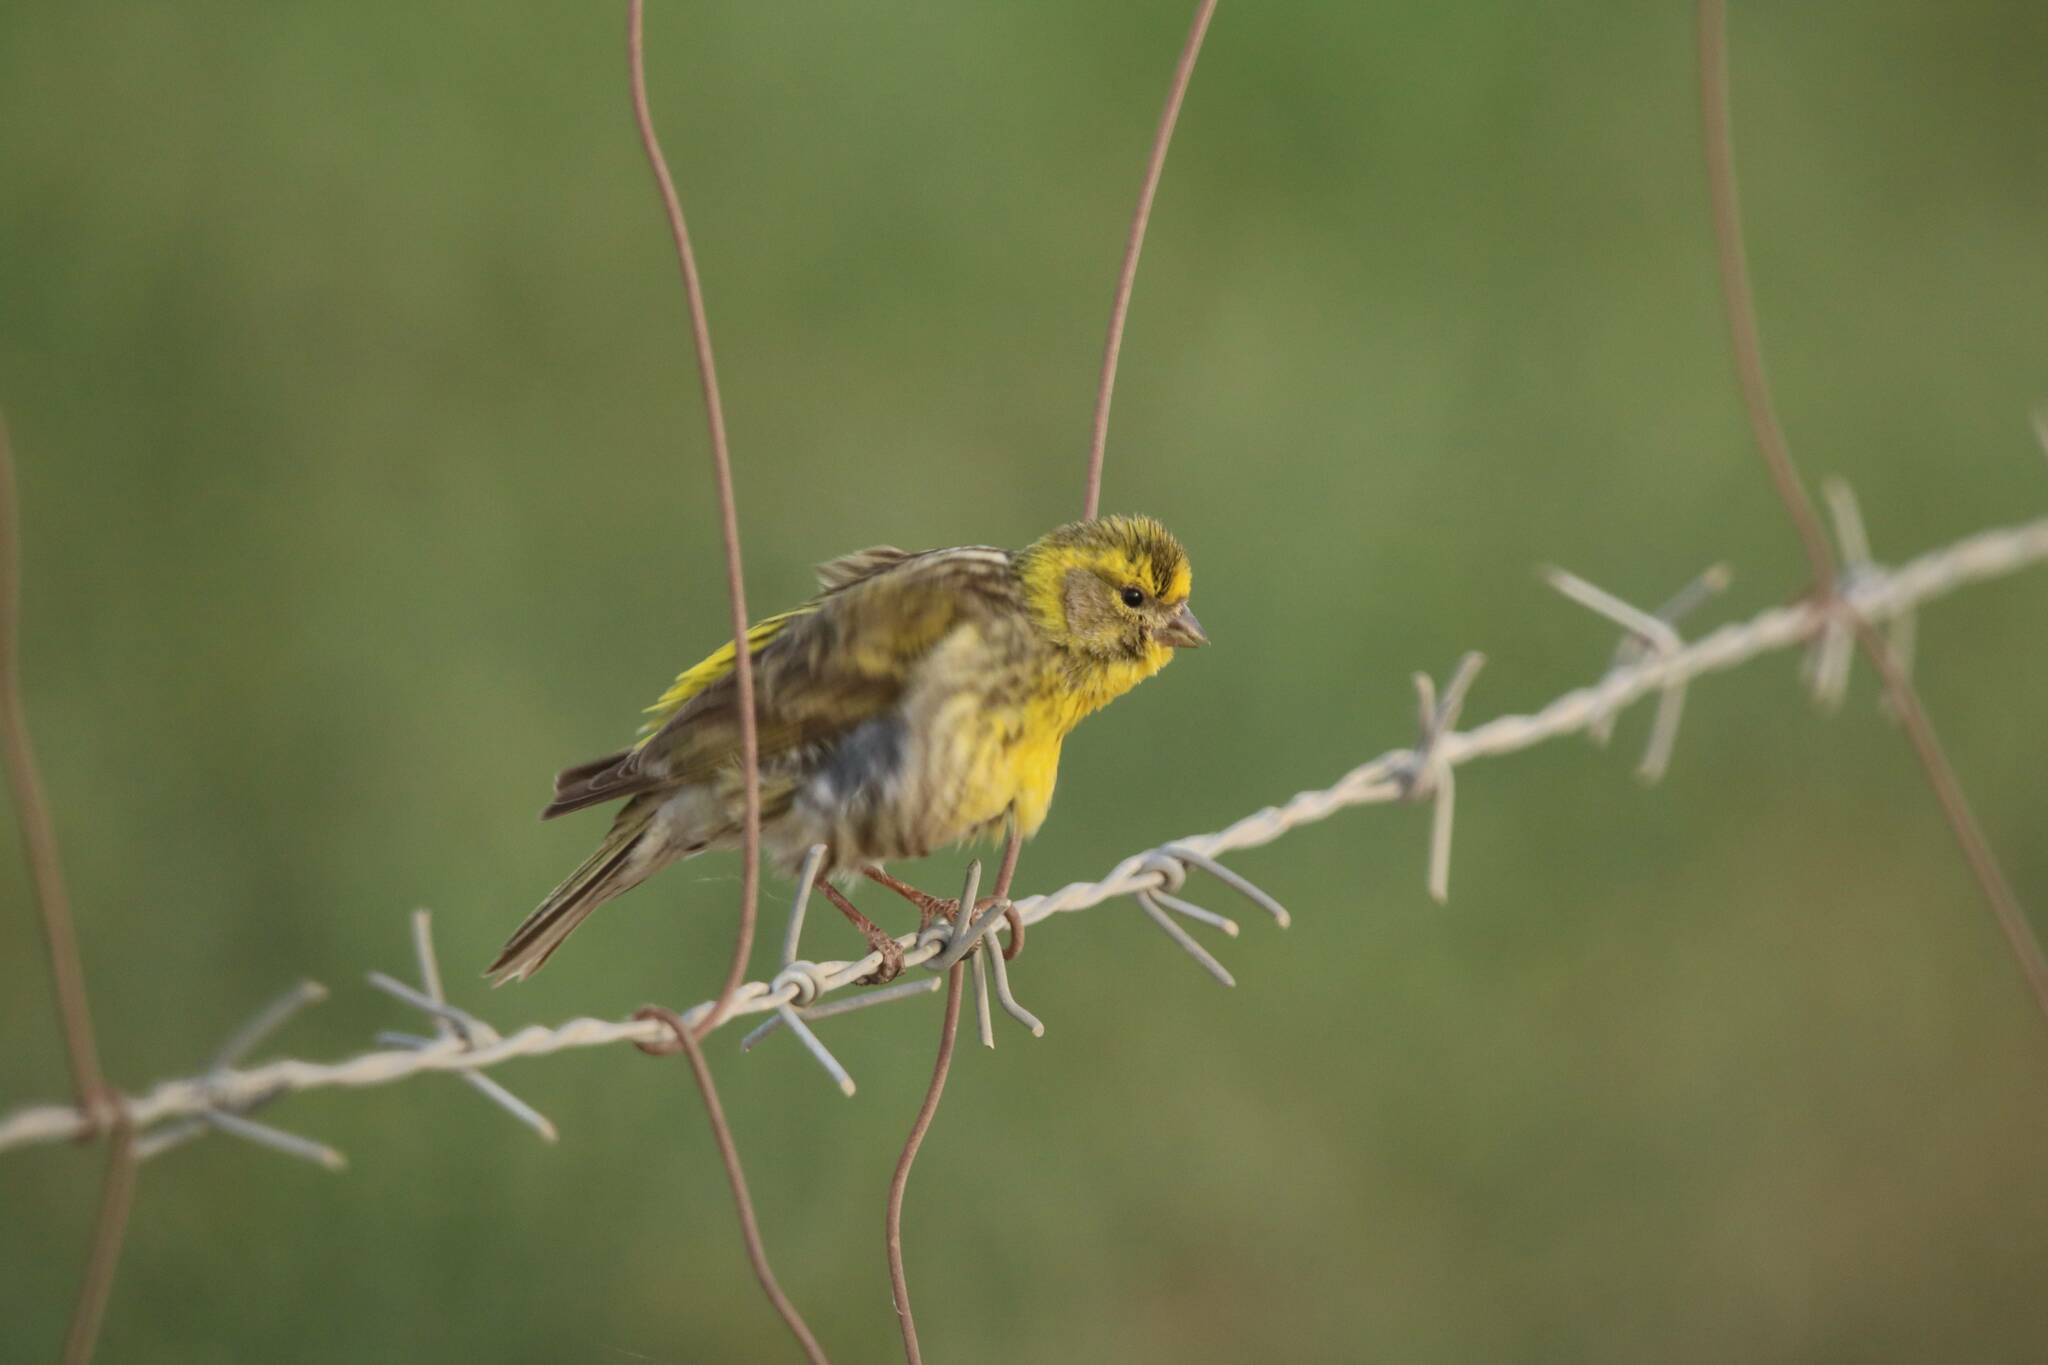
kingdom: Animalia
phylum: Chordata
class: Aves
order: Passeriformes
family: Fringillidae
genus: Serinus
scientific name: Serinus serinus
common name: European serin
